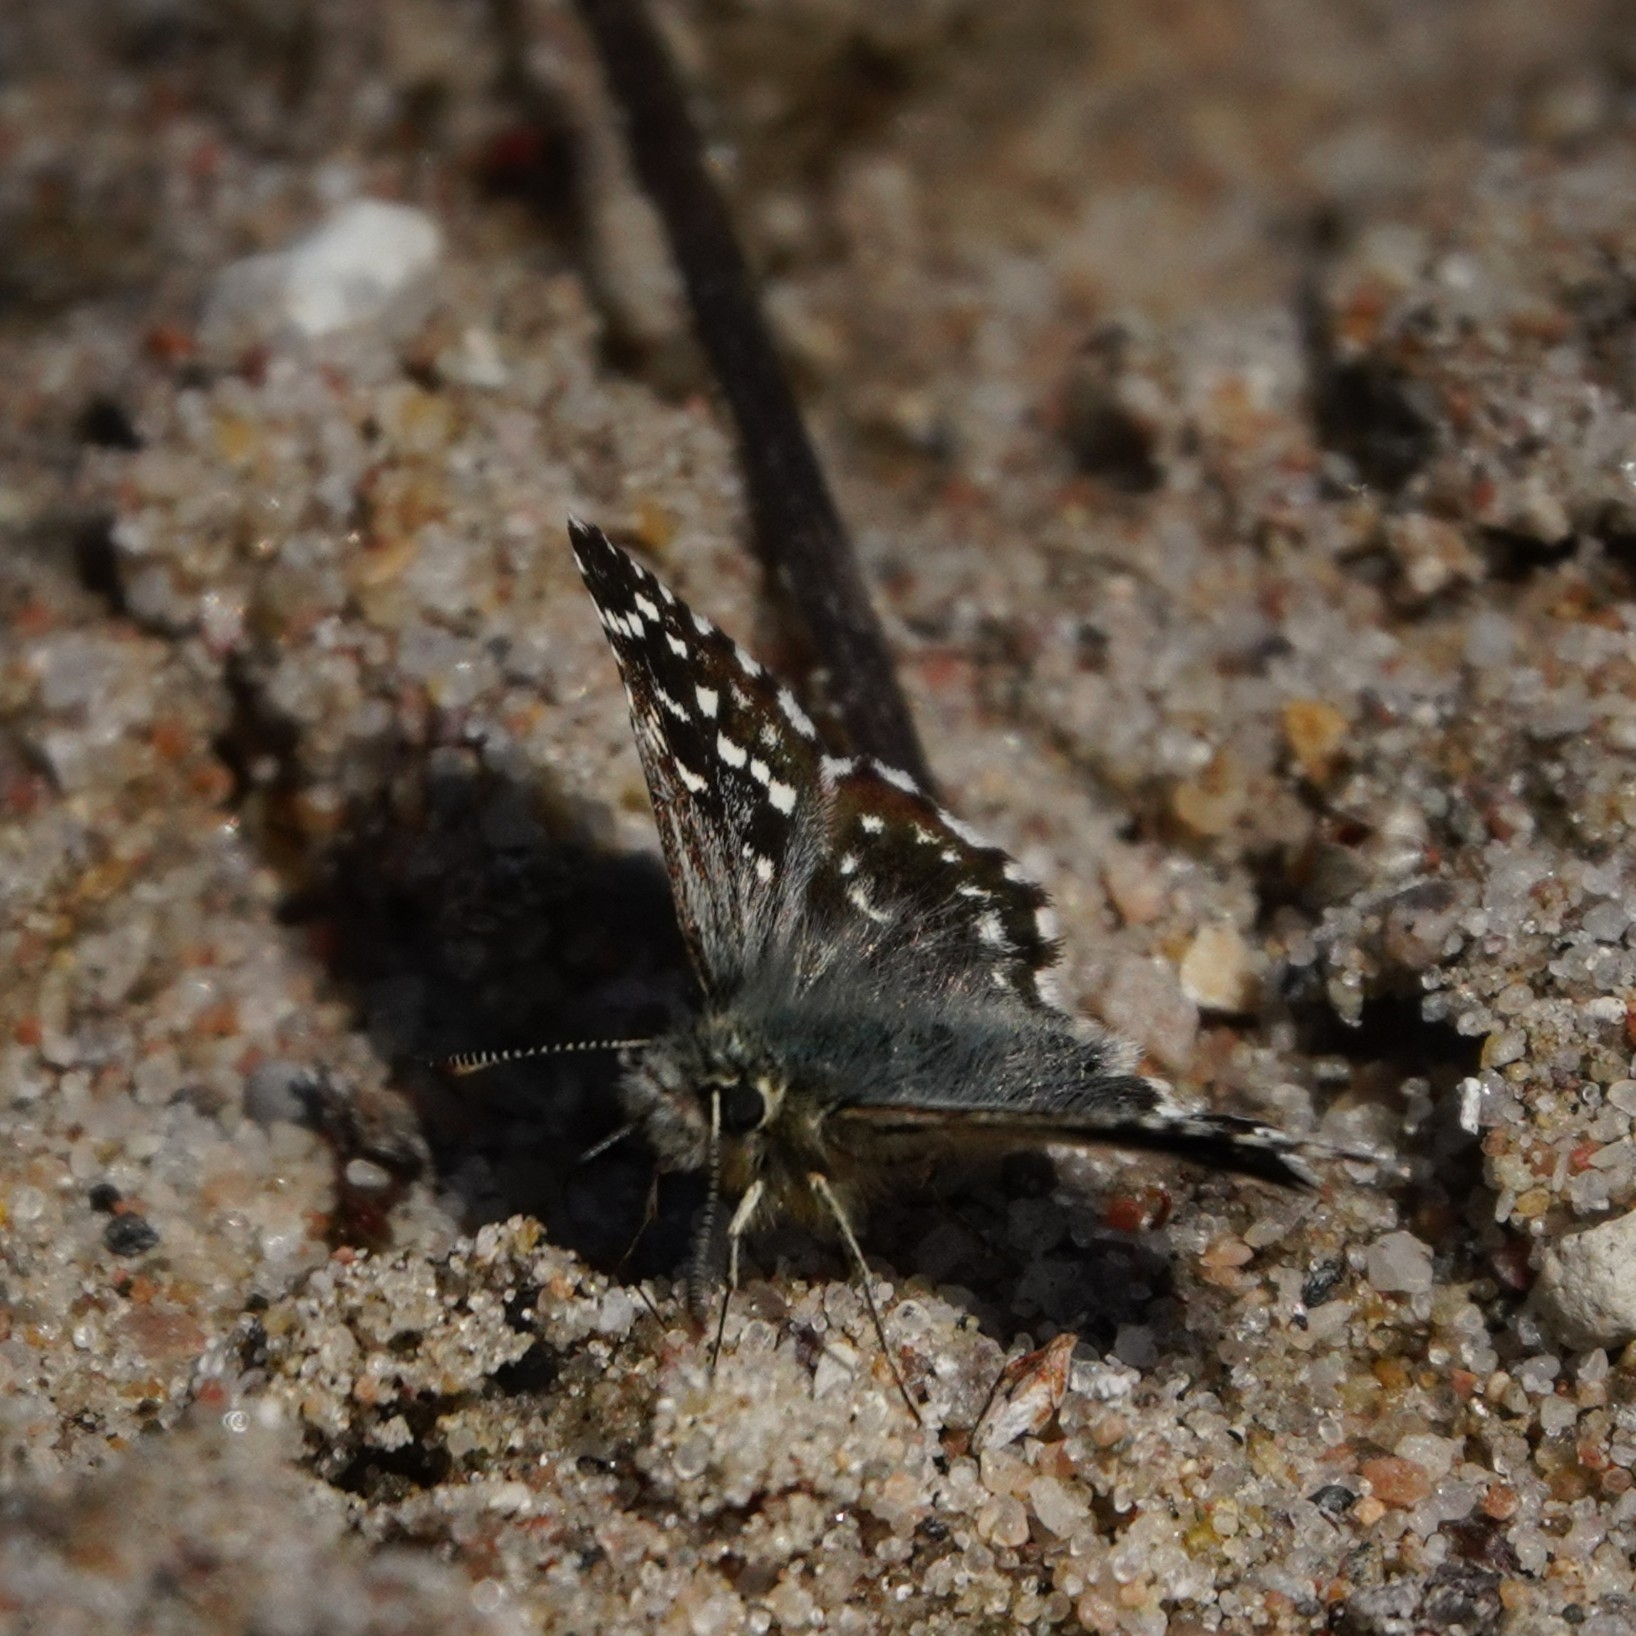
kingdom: Animalia
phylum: Arthropoda
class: Insecta
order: Lepidoptera
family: Hesperiidae
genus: Pyrgus
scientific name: Pyrgus malvae
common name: Grizzled skipper
